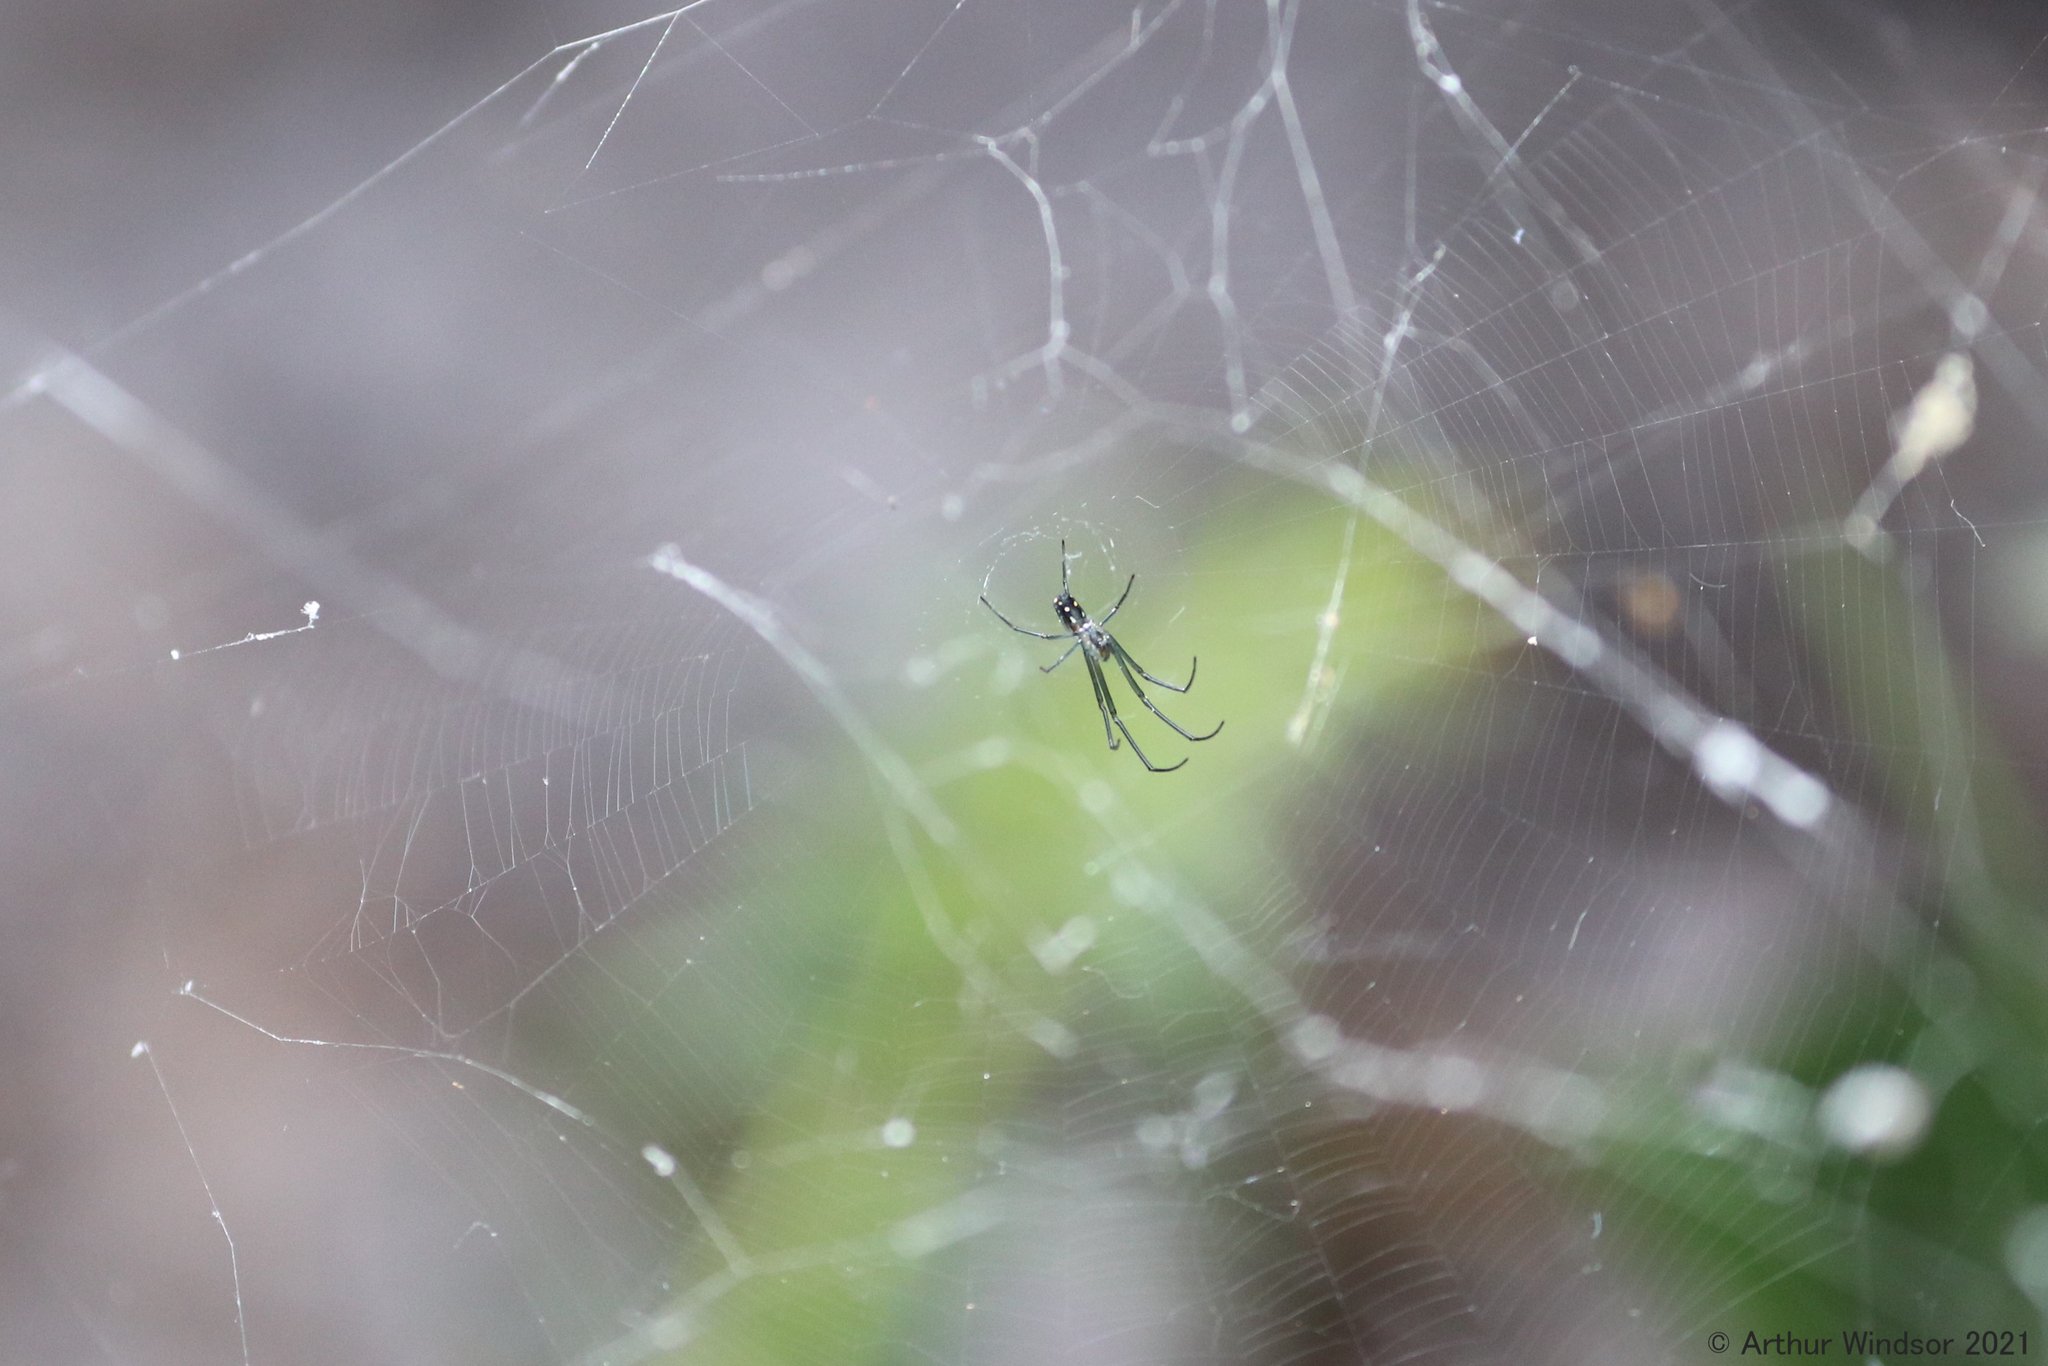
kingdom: Animalia
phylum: Arthropoda
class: Arachnida
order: Araneae
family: Tetragnathidae
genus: Leucauge
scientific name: Leucauge argyra
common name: Longjawed orb weavers
